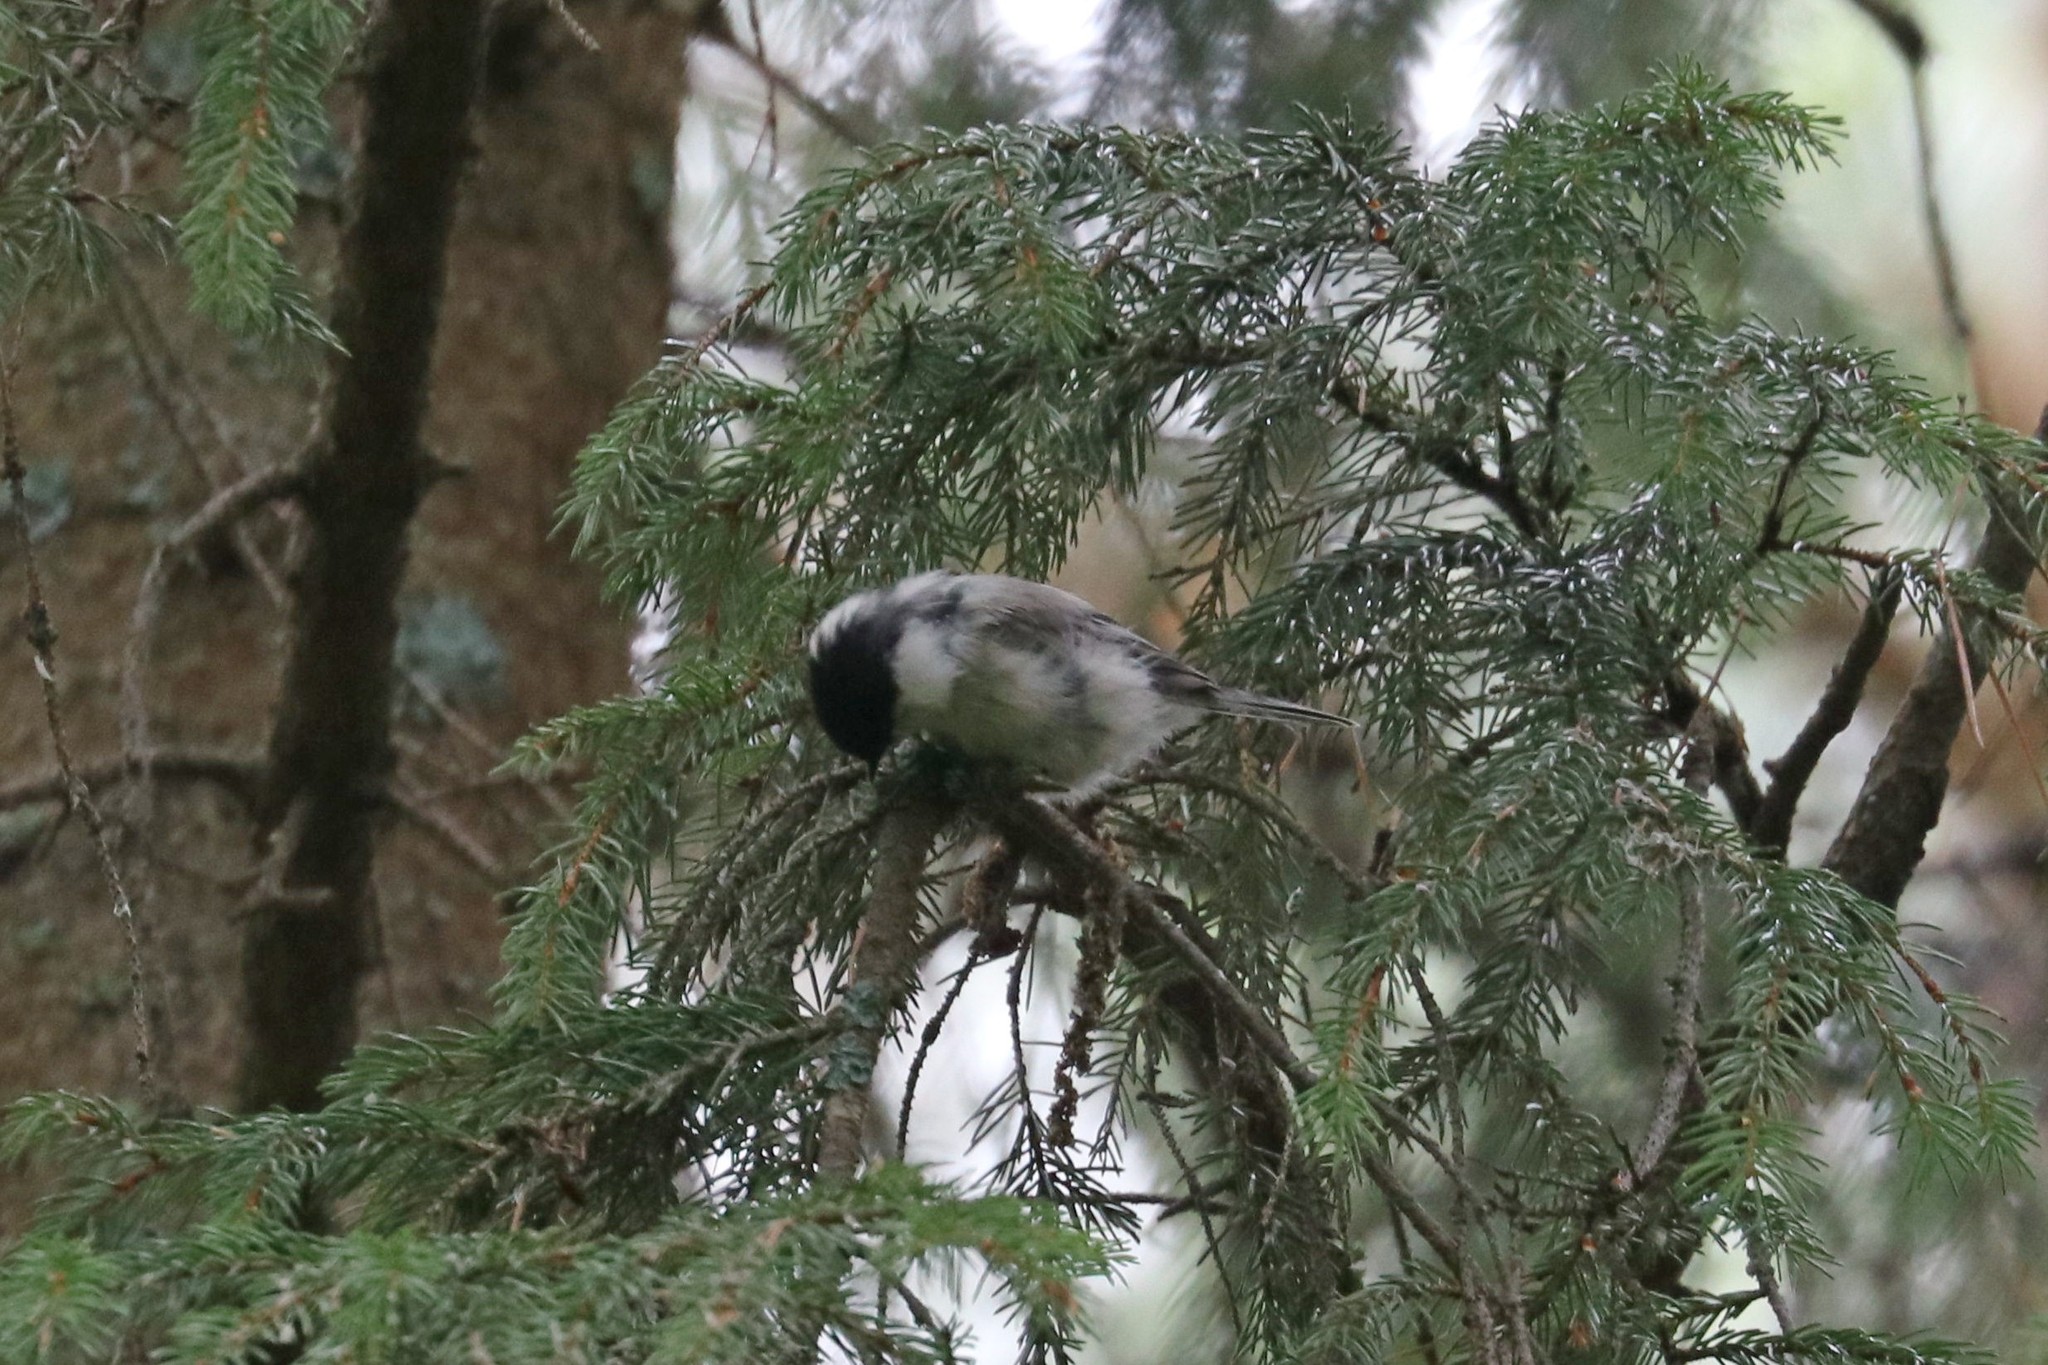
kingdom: Animalia
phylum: Chordata
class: Aves
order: Passeriformes
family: Paridae
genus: Poecile
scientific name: Poecile montanus
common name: Willow tit
